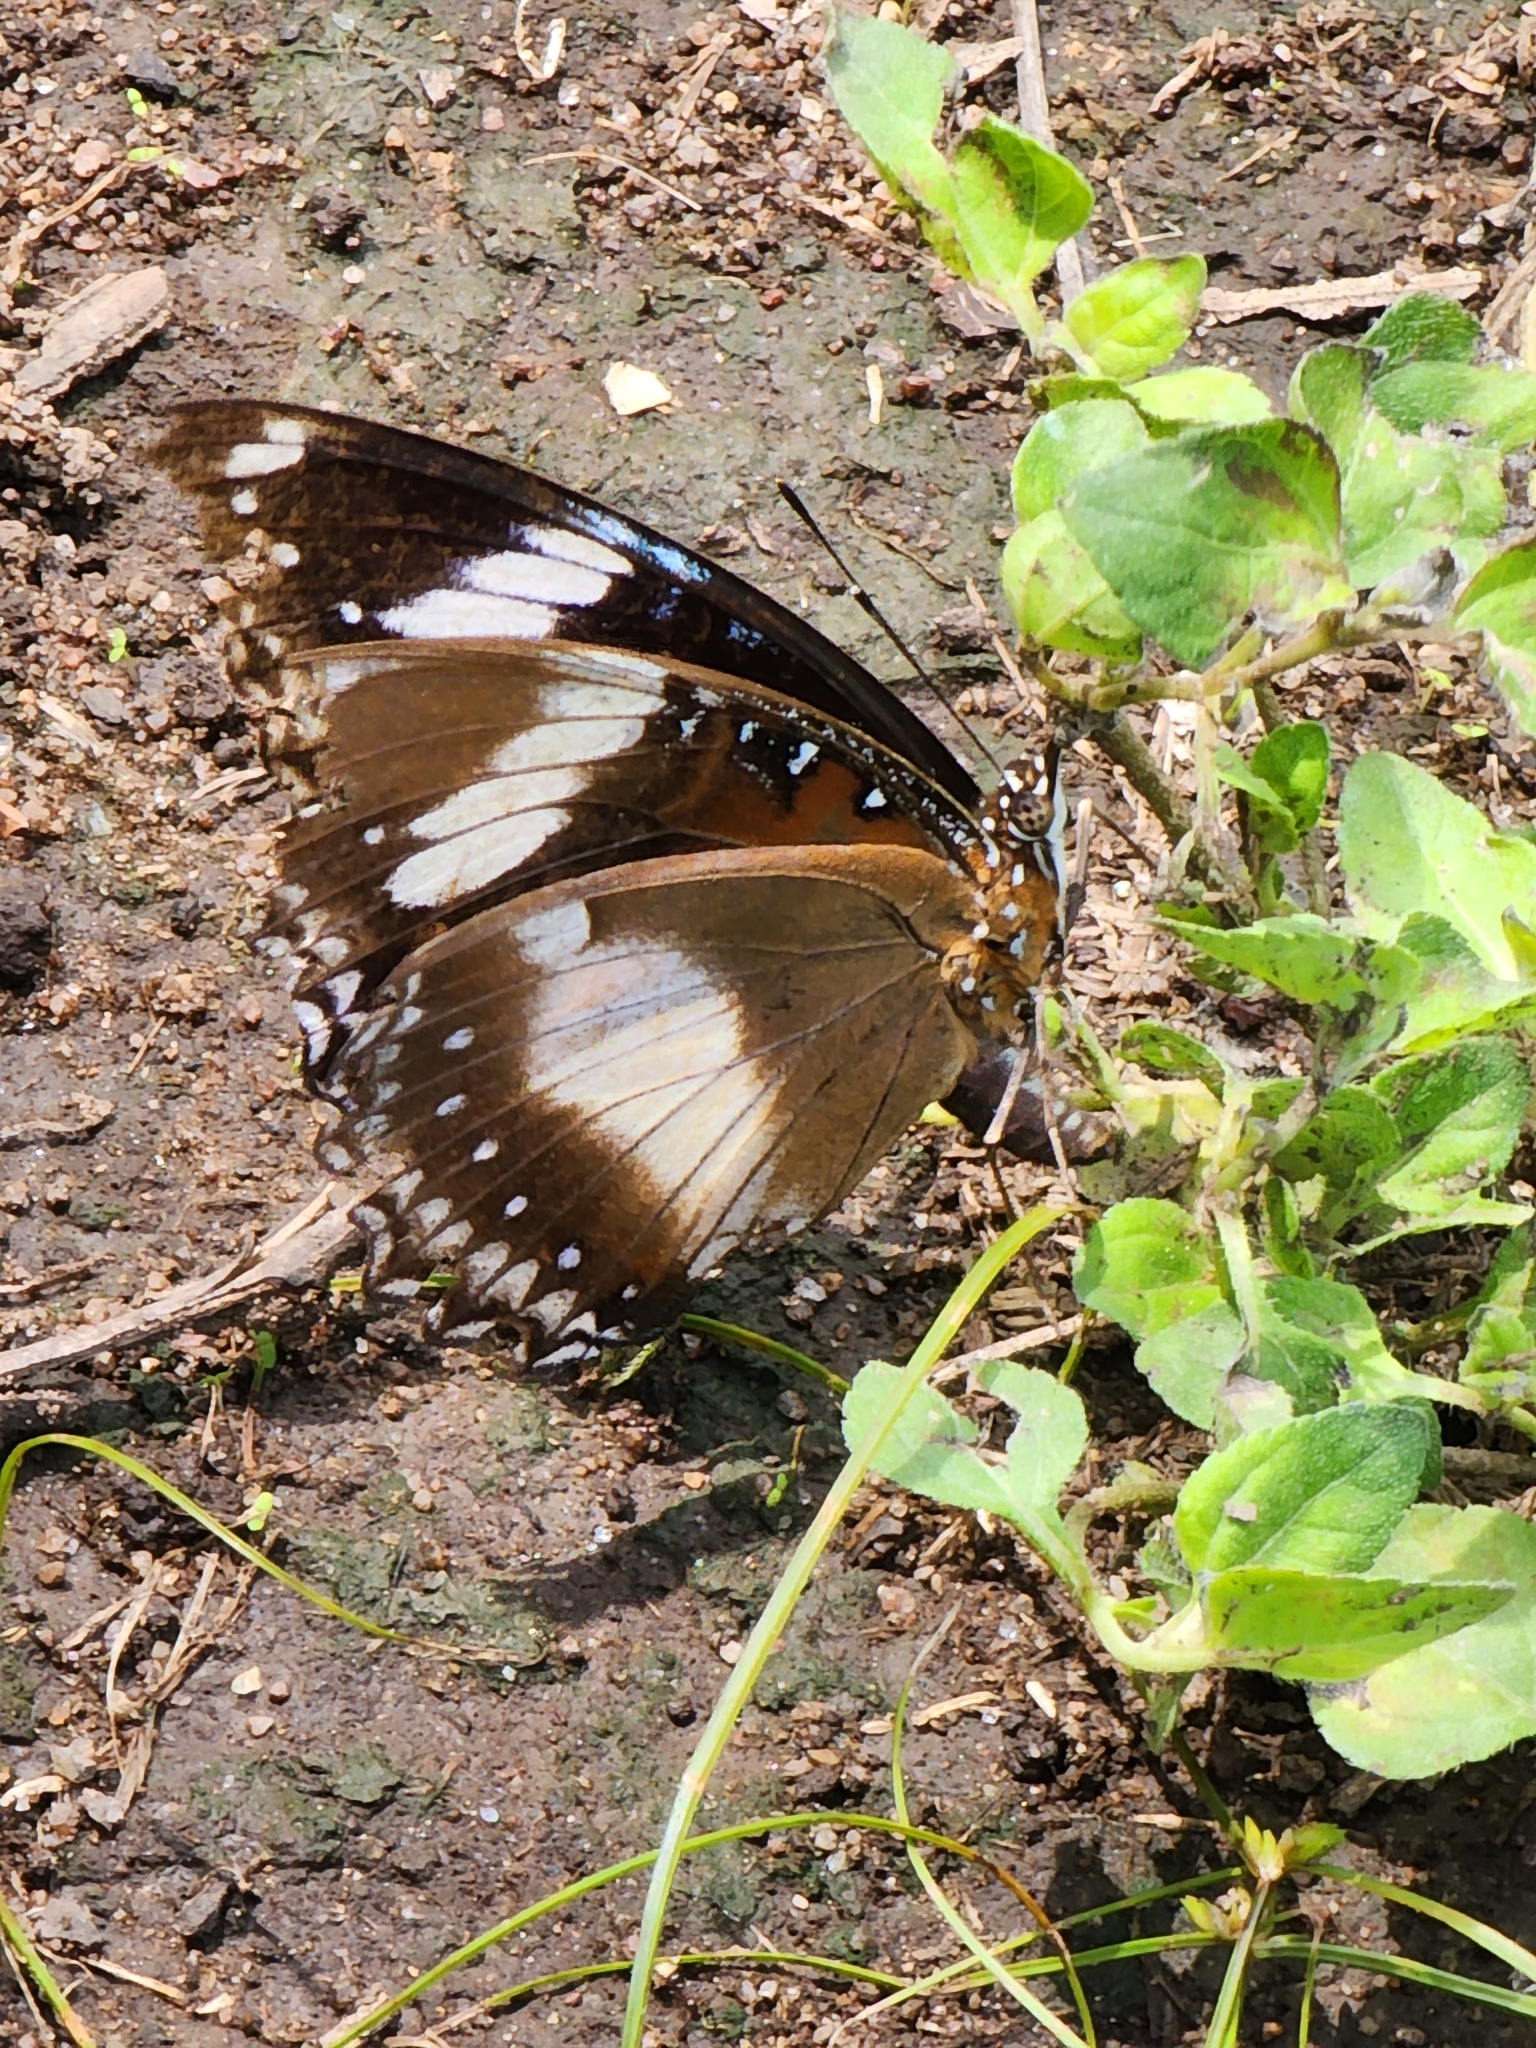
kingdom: Animalia
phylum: Arthropoda
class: Insecta
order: Lepidoptera
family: Nymphalidae
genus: Hypolimnas
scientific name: Hypolimnas bolina
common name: Great eggfly
